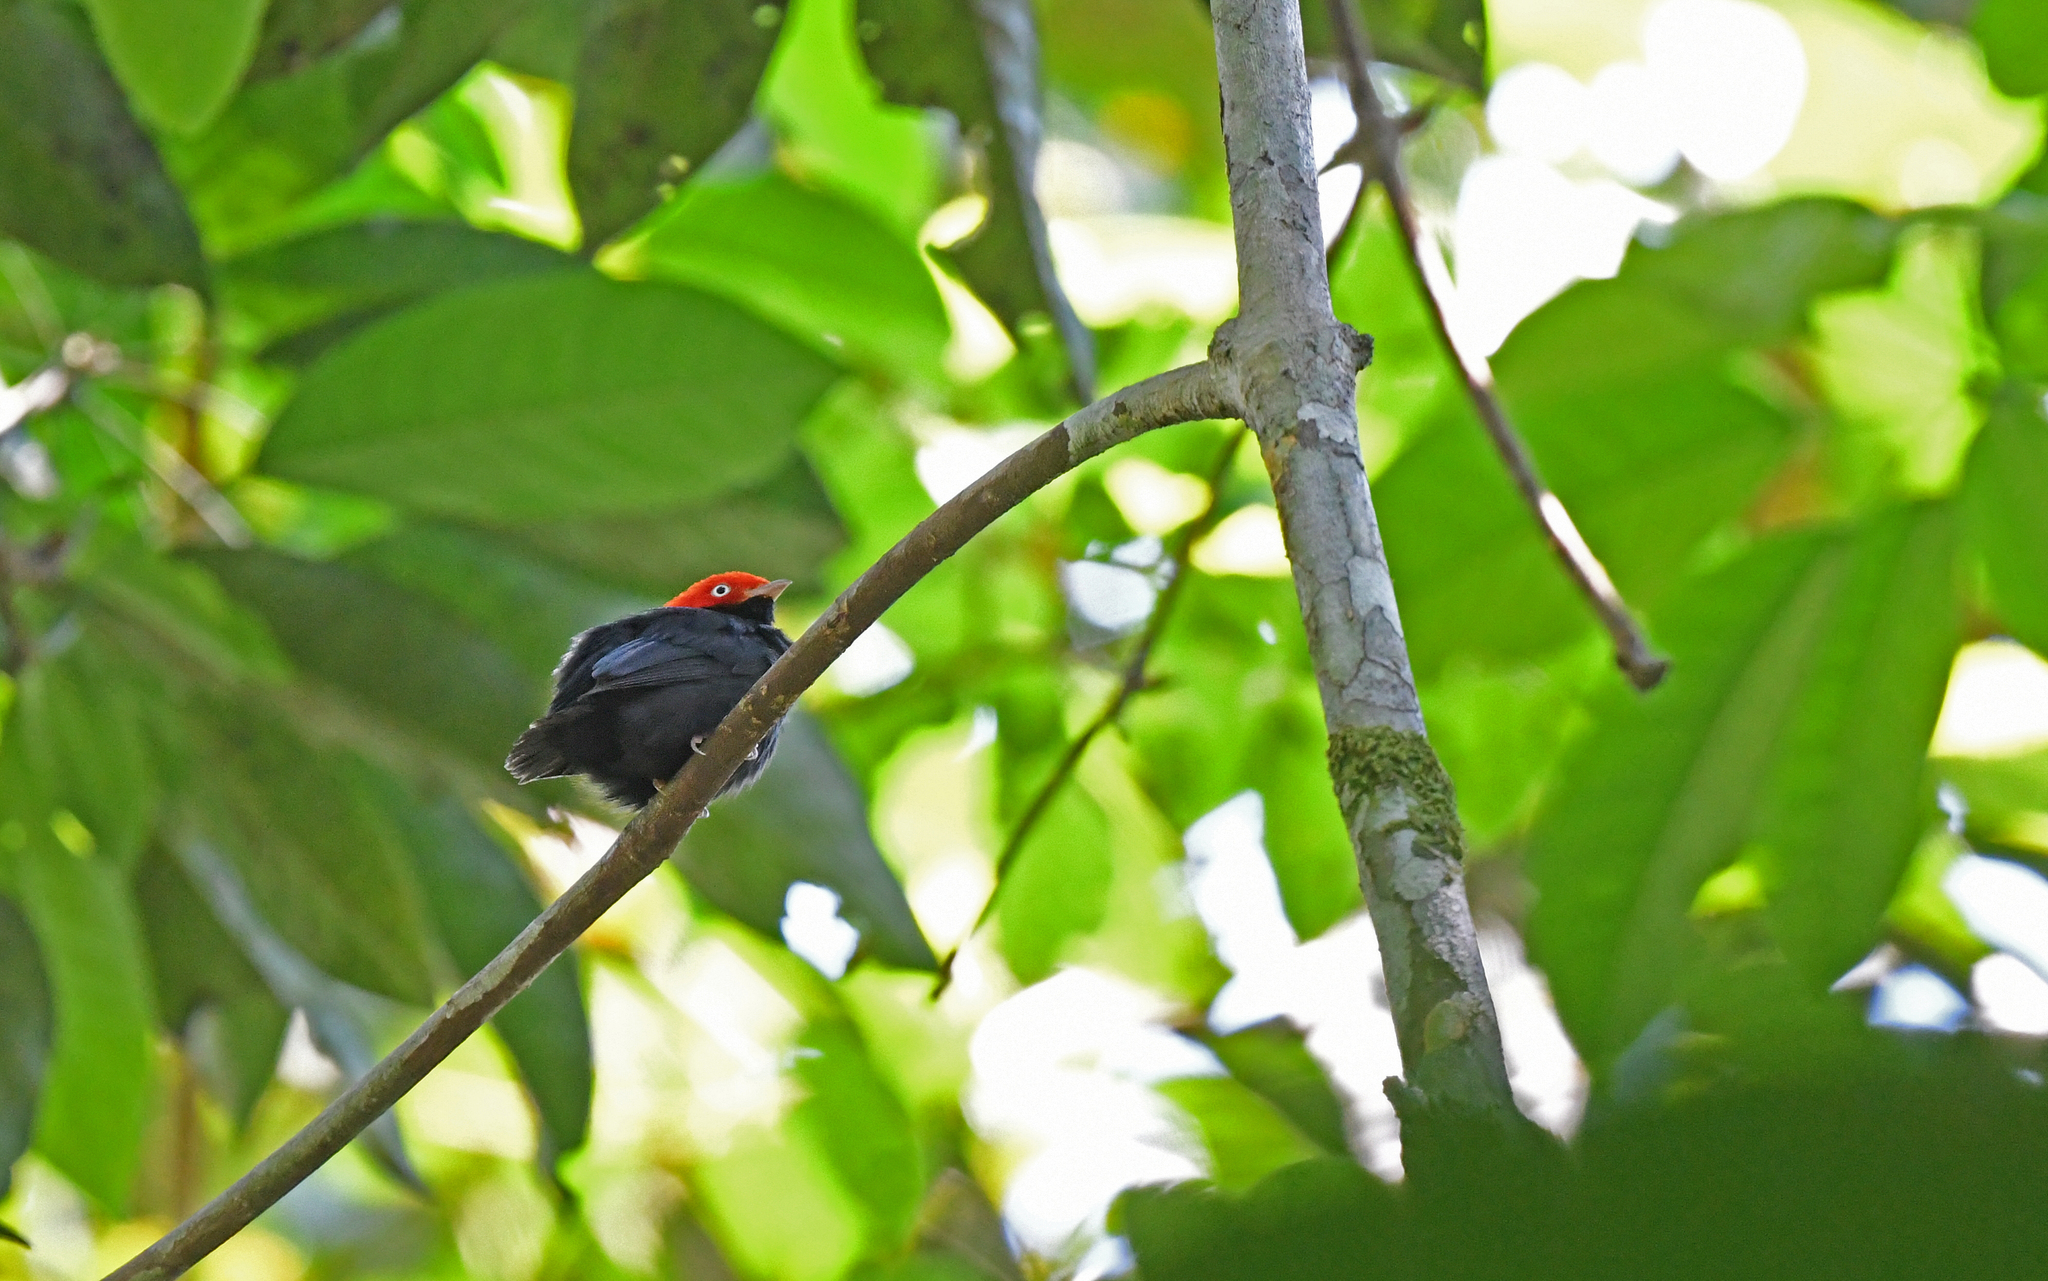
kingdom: Animalia
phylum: Chordata
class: Aves
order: Passeriformes
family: Pipridae
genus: Pipra
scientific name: Pipra chloromeros
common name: Round-tailed manakin
